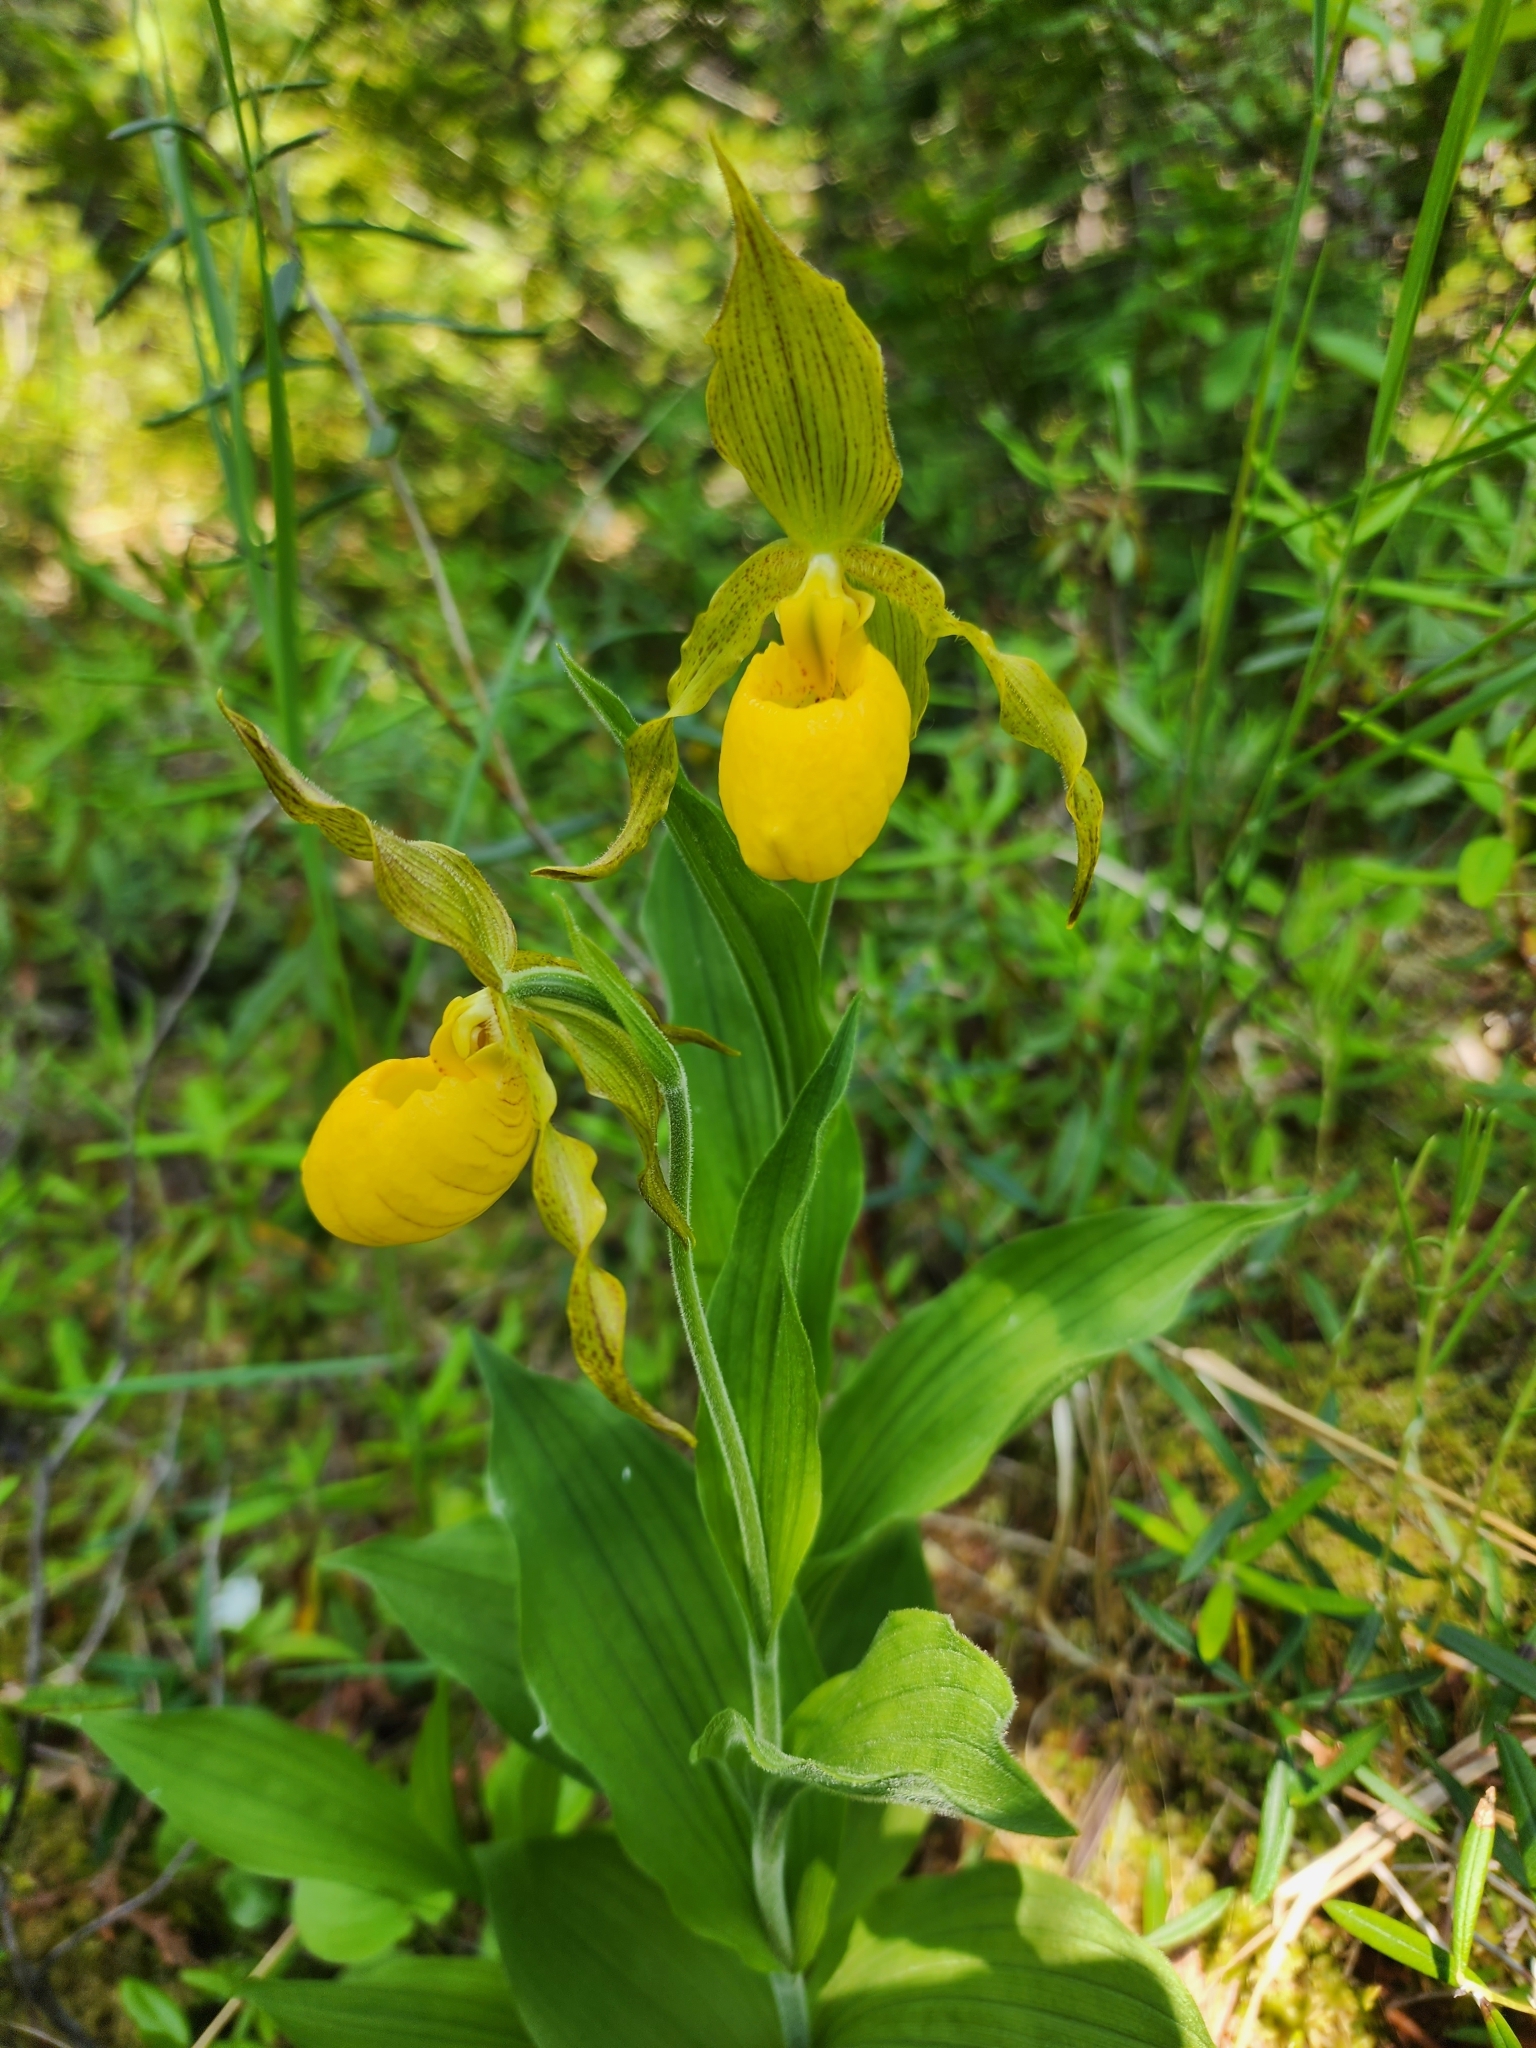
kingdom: Plantae
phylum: Tracheophyta
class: Liliopsida
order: Asparagales
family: Orchidaceae
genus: Cypripedium
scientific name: Cypripedium parviflorum
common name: American yellow lady's-slipper
